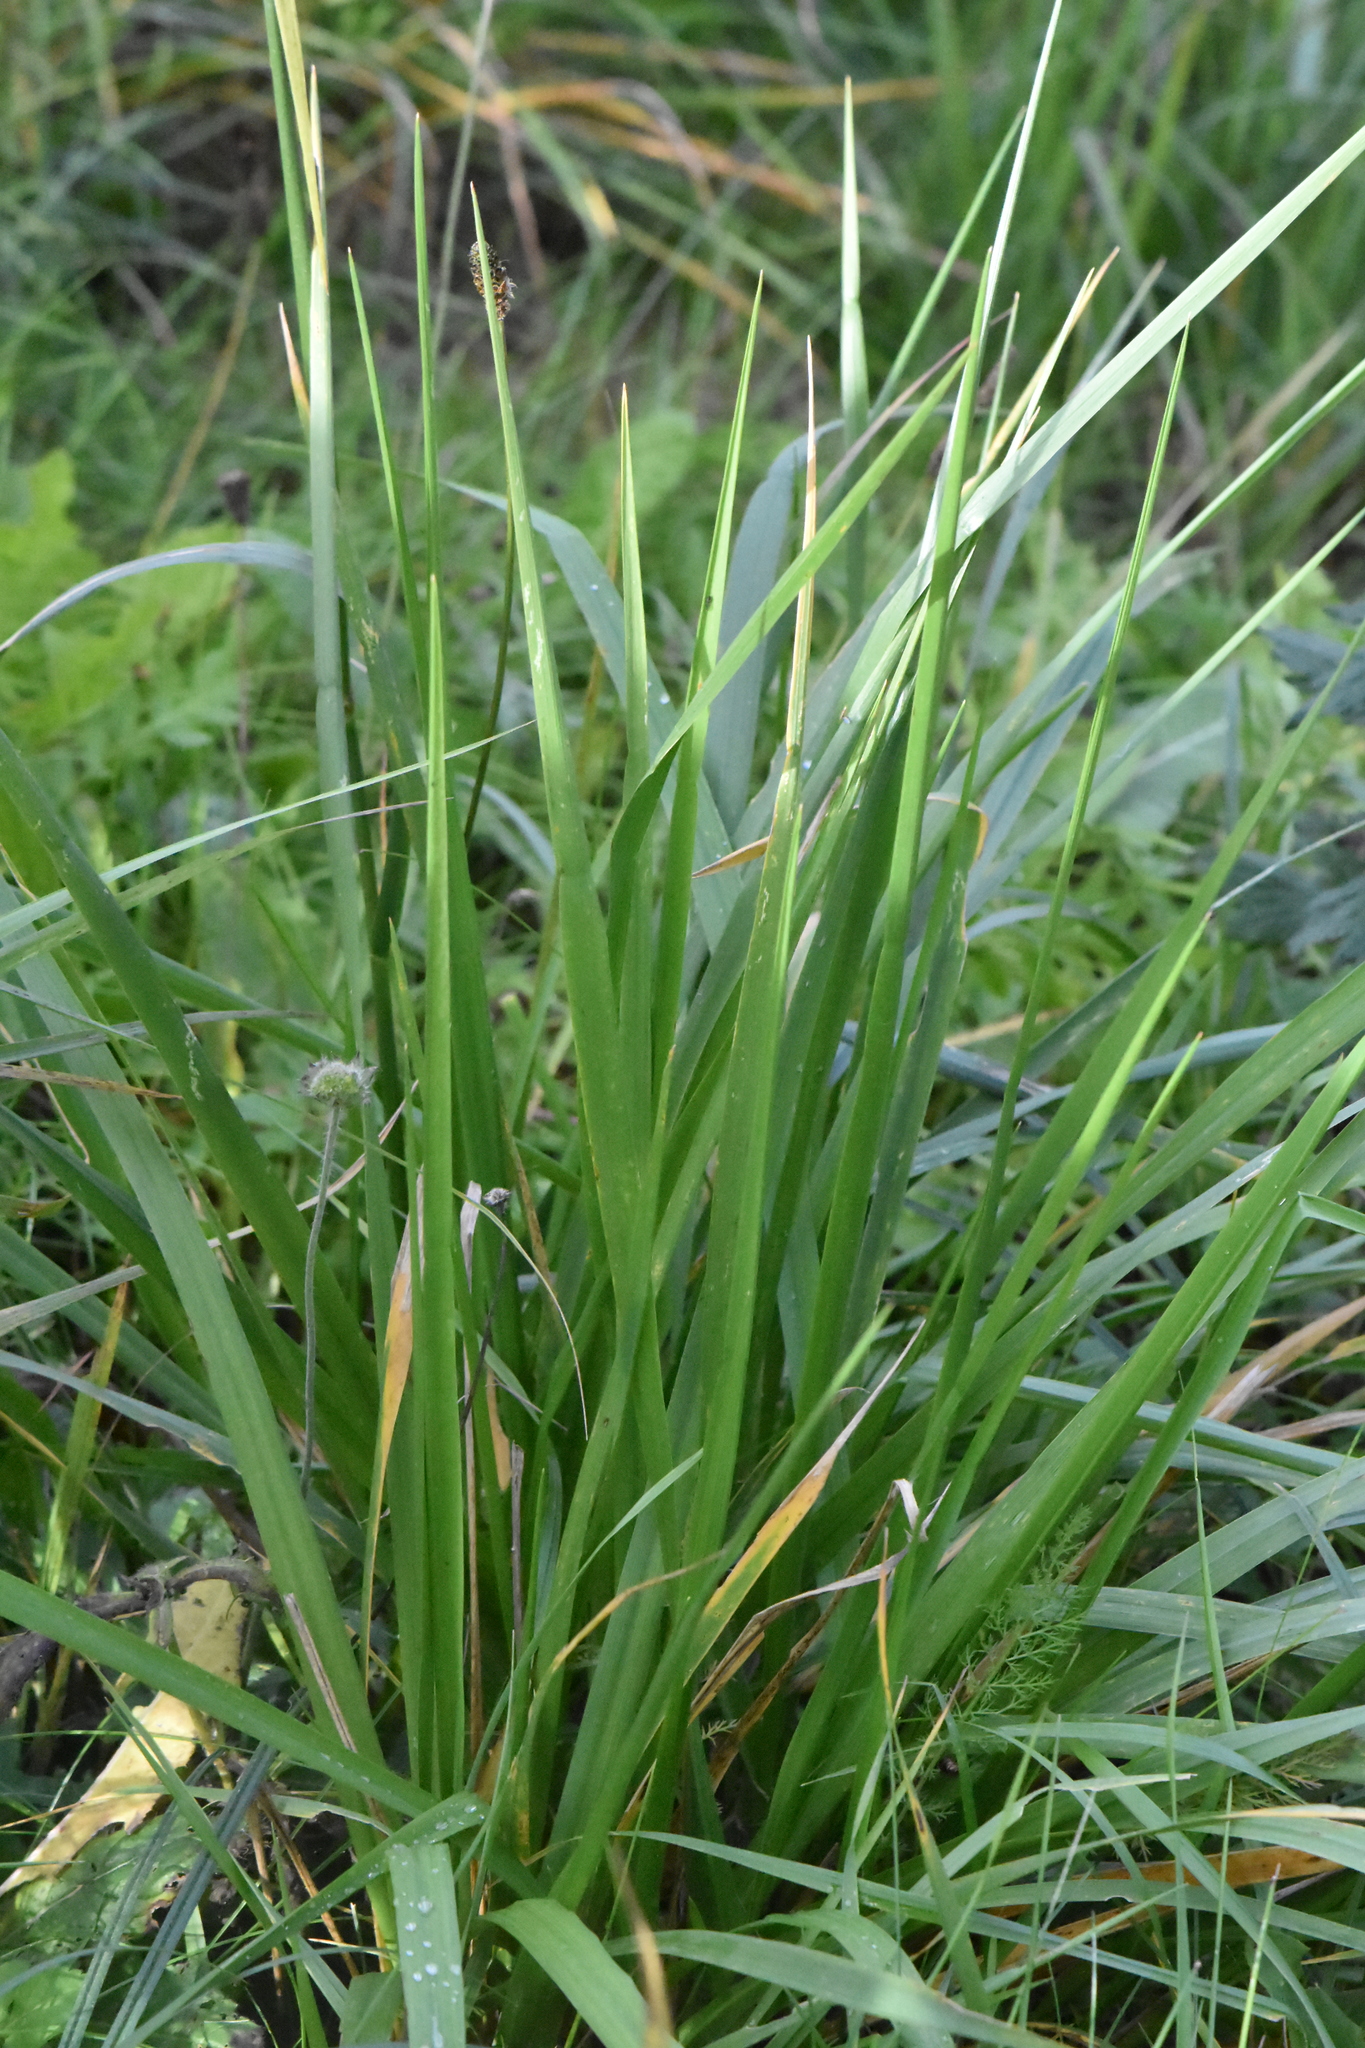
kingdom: Plantae
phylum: Tracheophyta
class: Liliopsida
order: Poales
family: Poaceae
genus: Lolium
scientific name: Lolium arundinaceum
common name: Reed fescue
